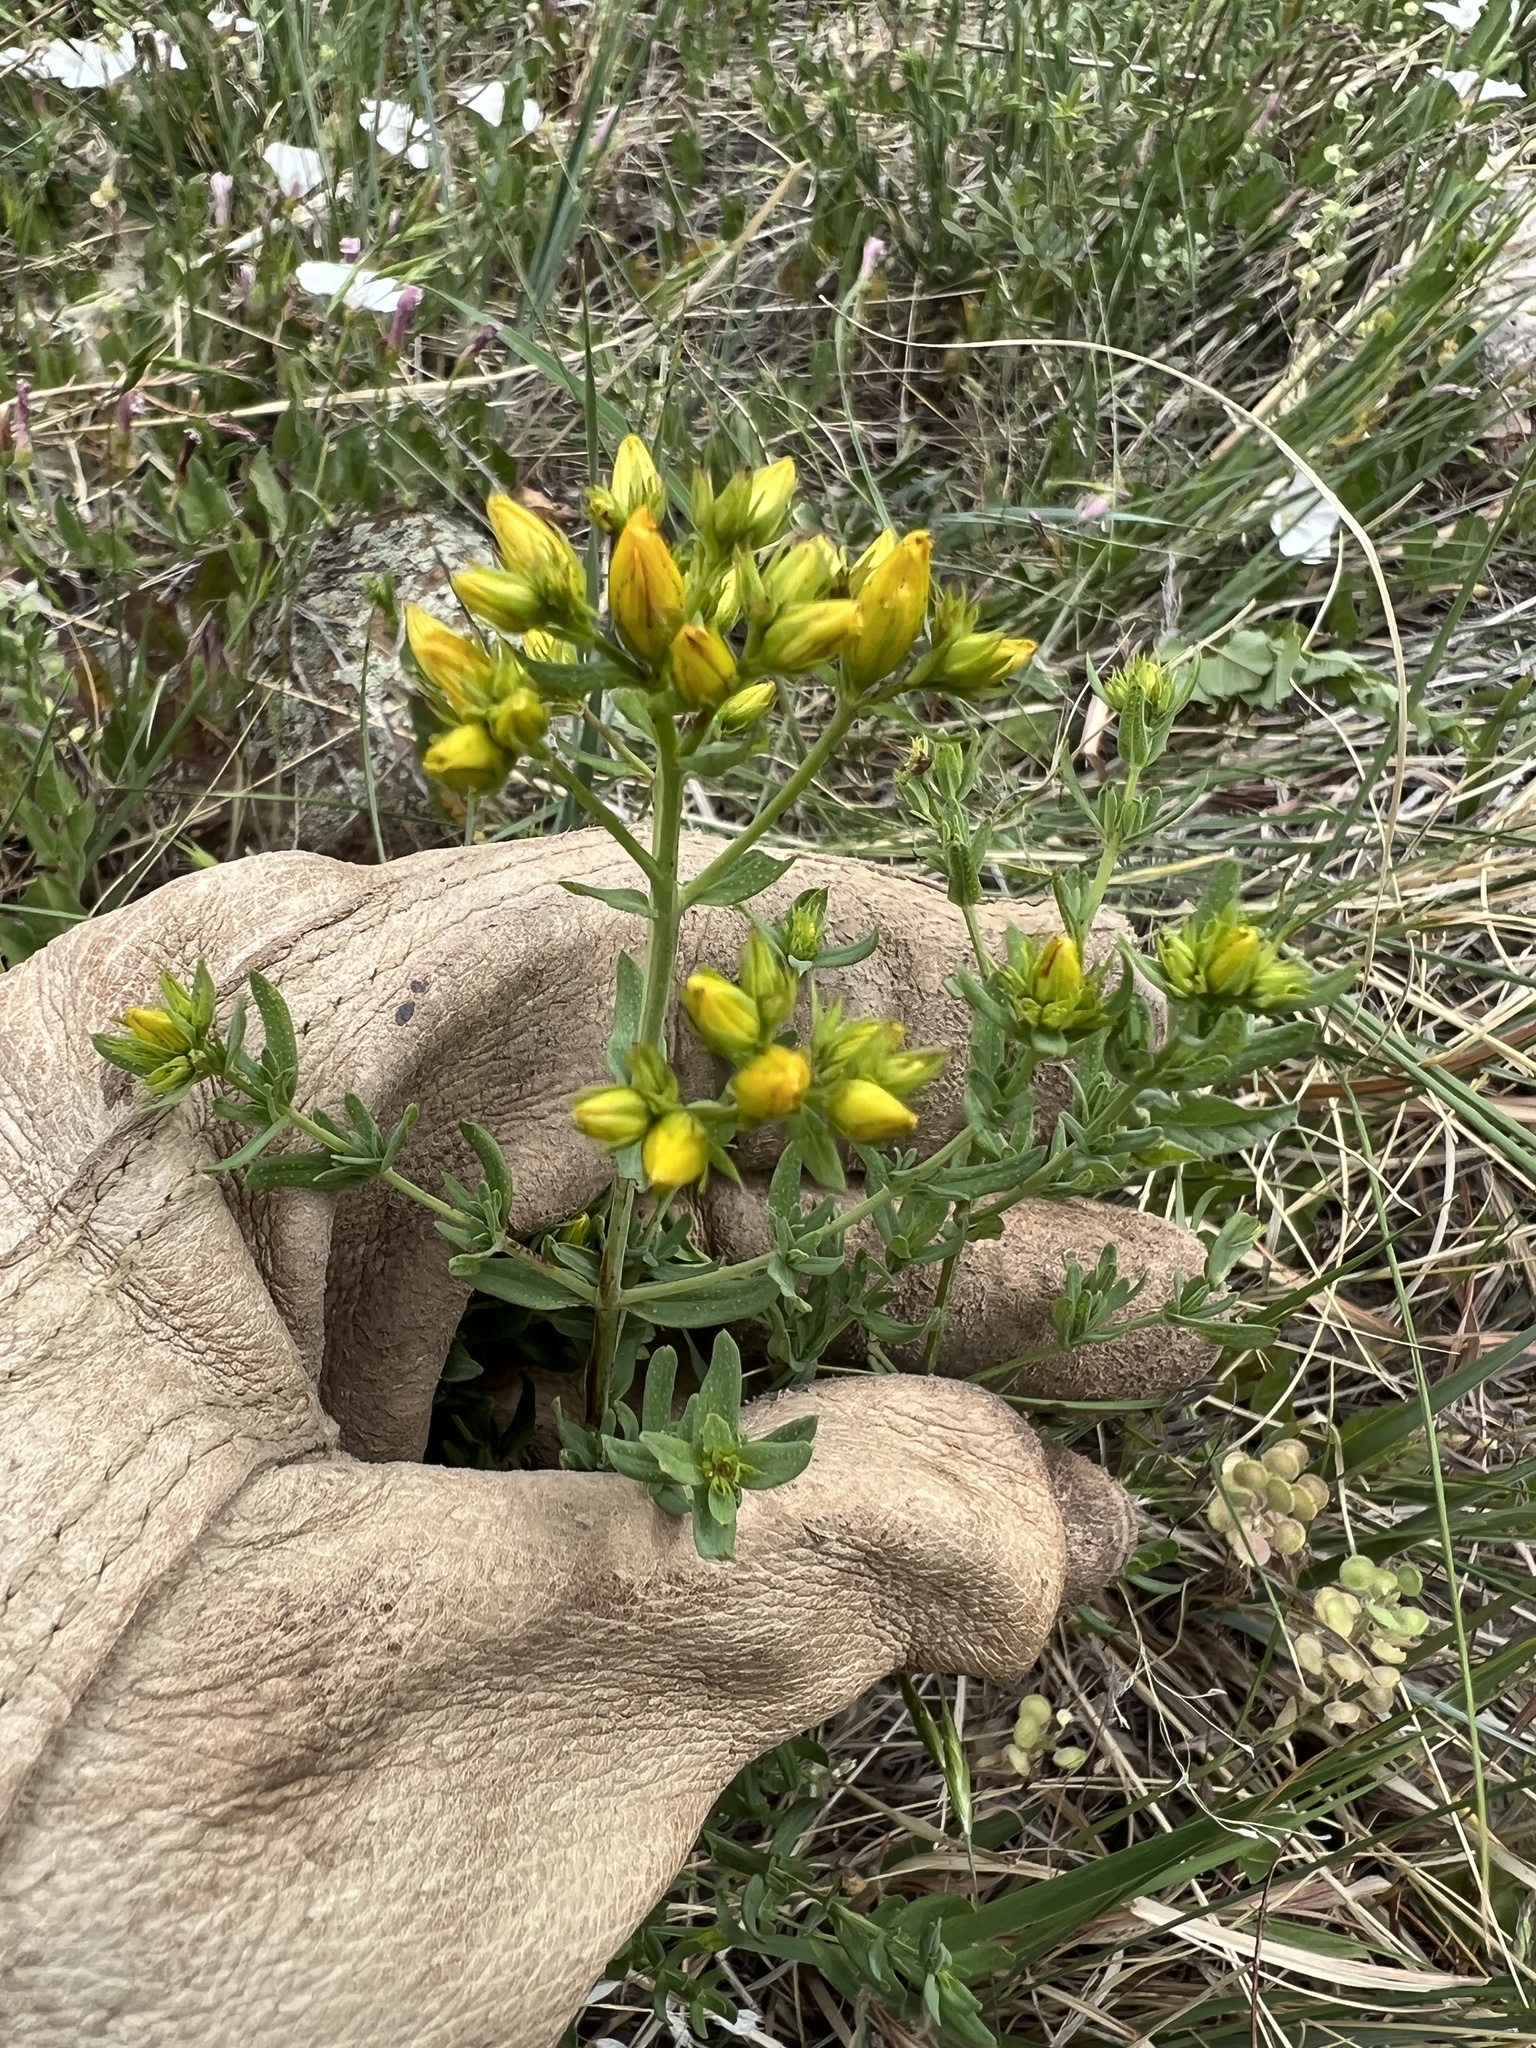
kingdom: Plantae
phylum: Tracheophyta
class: Magnoliopsida
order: Malpighiales
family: Hypericaceae
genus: Hypericum
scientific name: Hypericum perforatum
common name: Common st. johnswort
